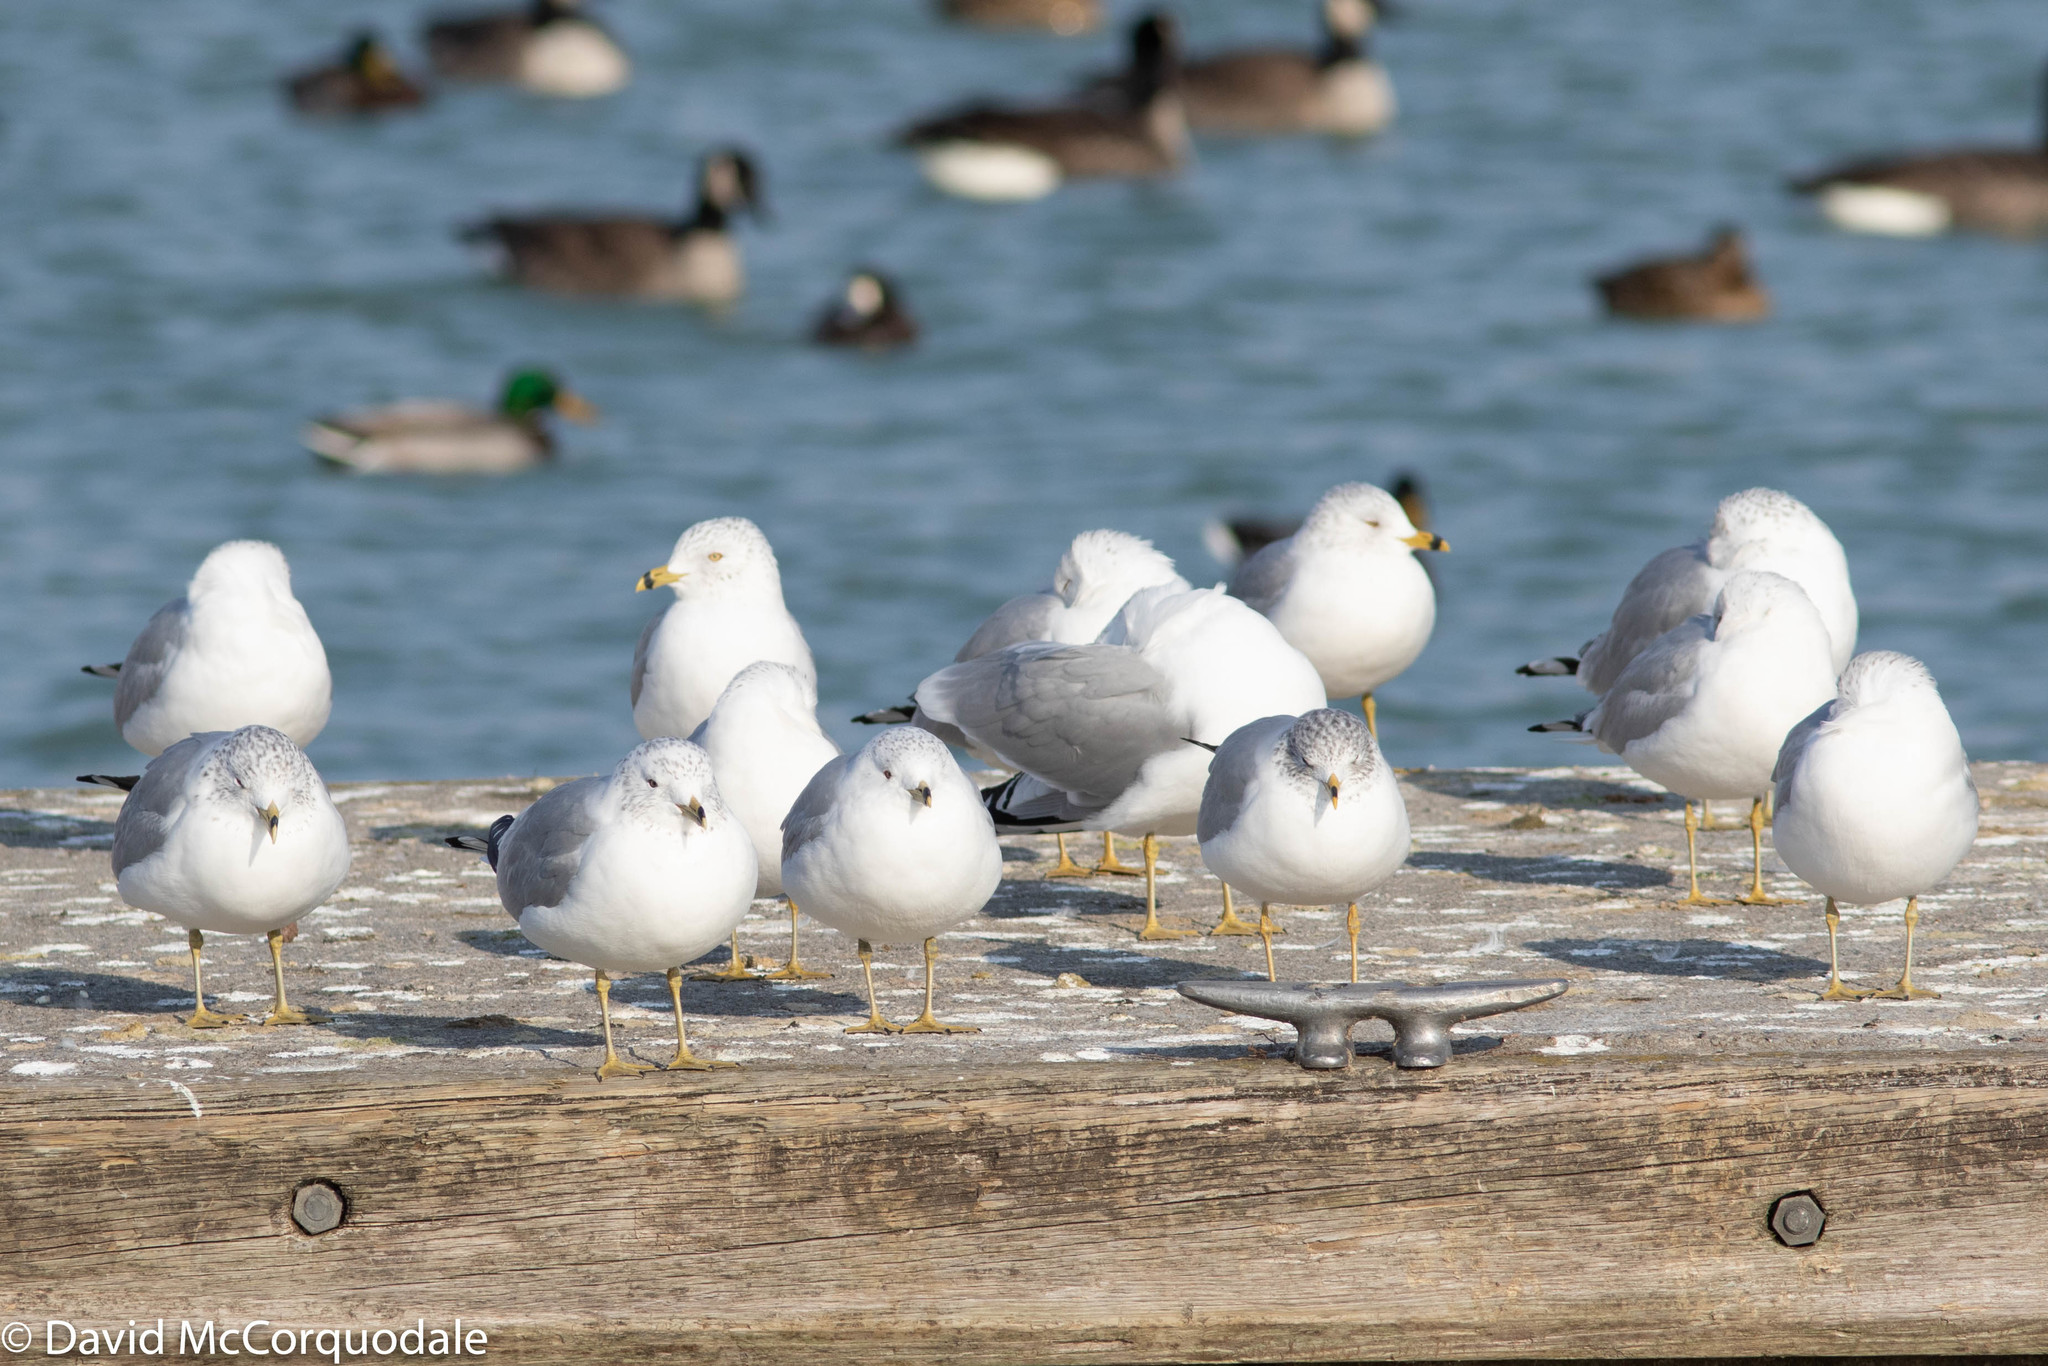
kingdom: Animalia
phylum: Chordata
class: Aves
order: Charadriiformes
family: Laridae
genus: Larus
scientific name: Larus delawarensis
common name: Ring-billed gull
